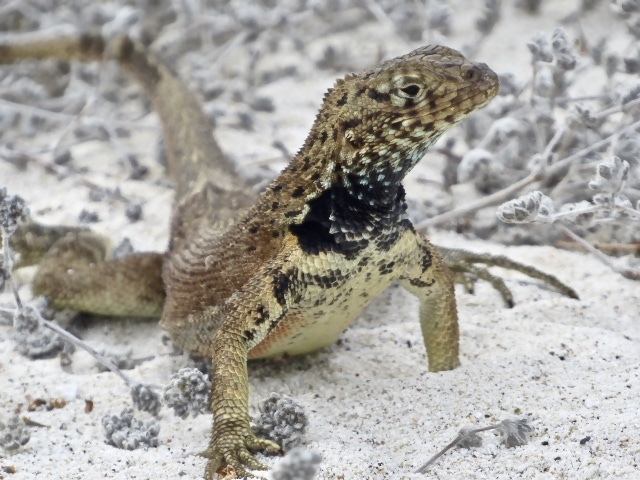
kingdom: Animalia
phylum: Chordata
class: Squamata
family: Tropiduridae
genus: Microlophus
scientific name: Microlophus
